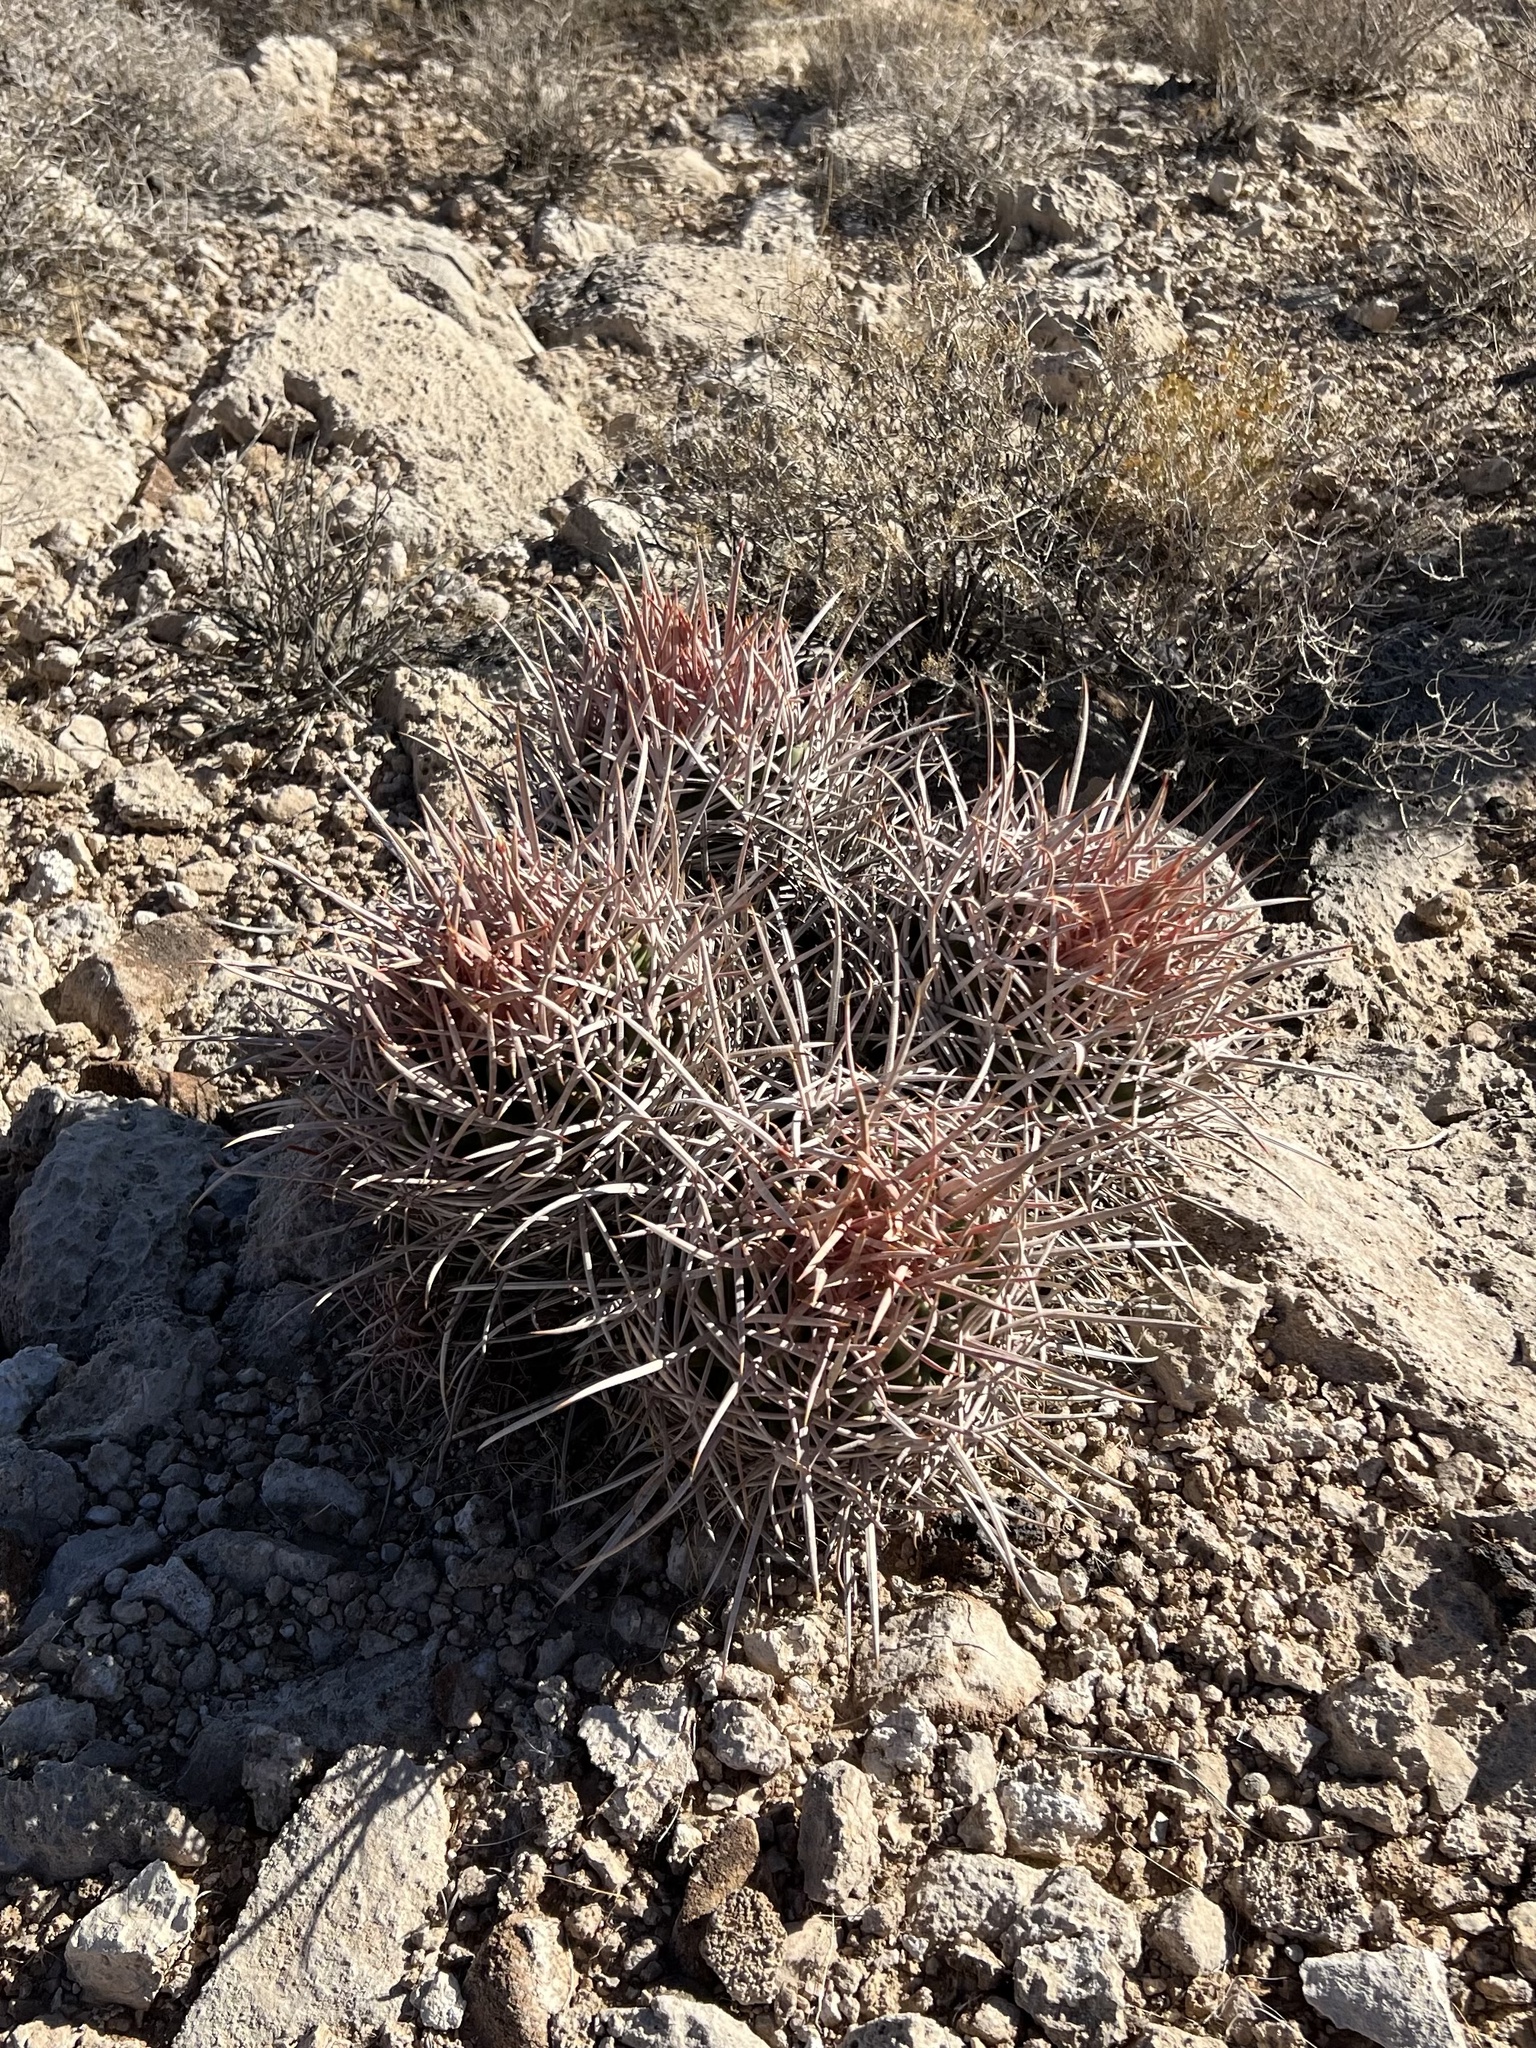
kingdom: Plantae
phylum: Tracheophyta
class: Magnoliopsida
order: Caryophyllales
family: Cactaceae
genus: Echinocactus
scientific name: Echinocactus polycephalus
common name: Cottontop cactus
